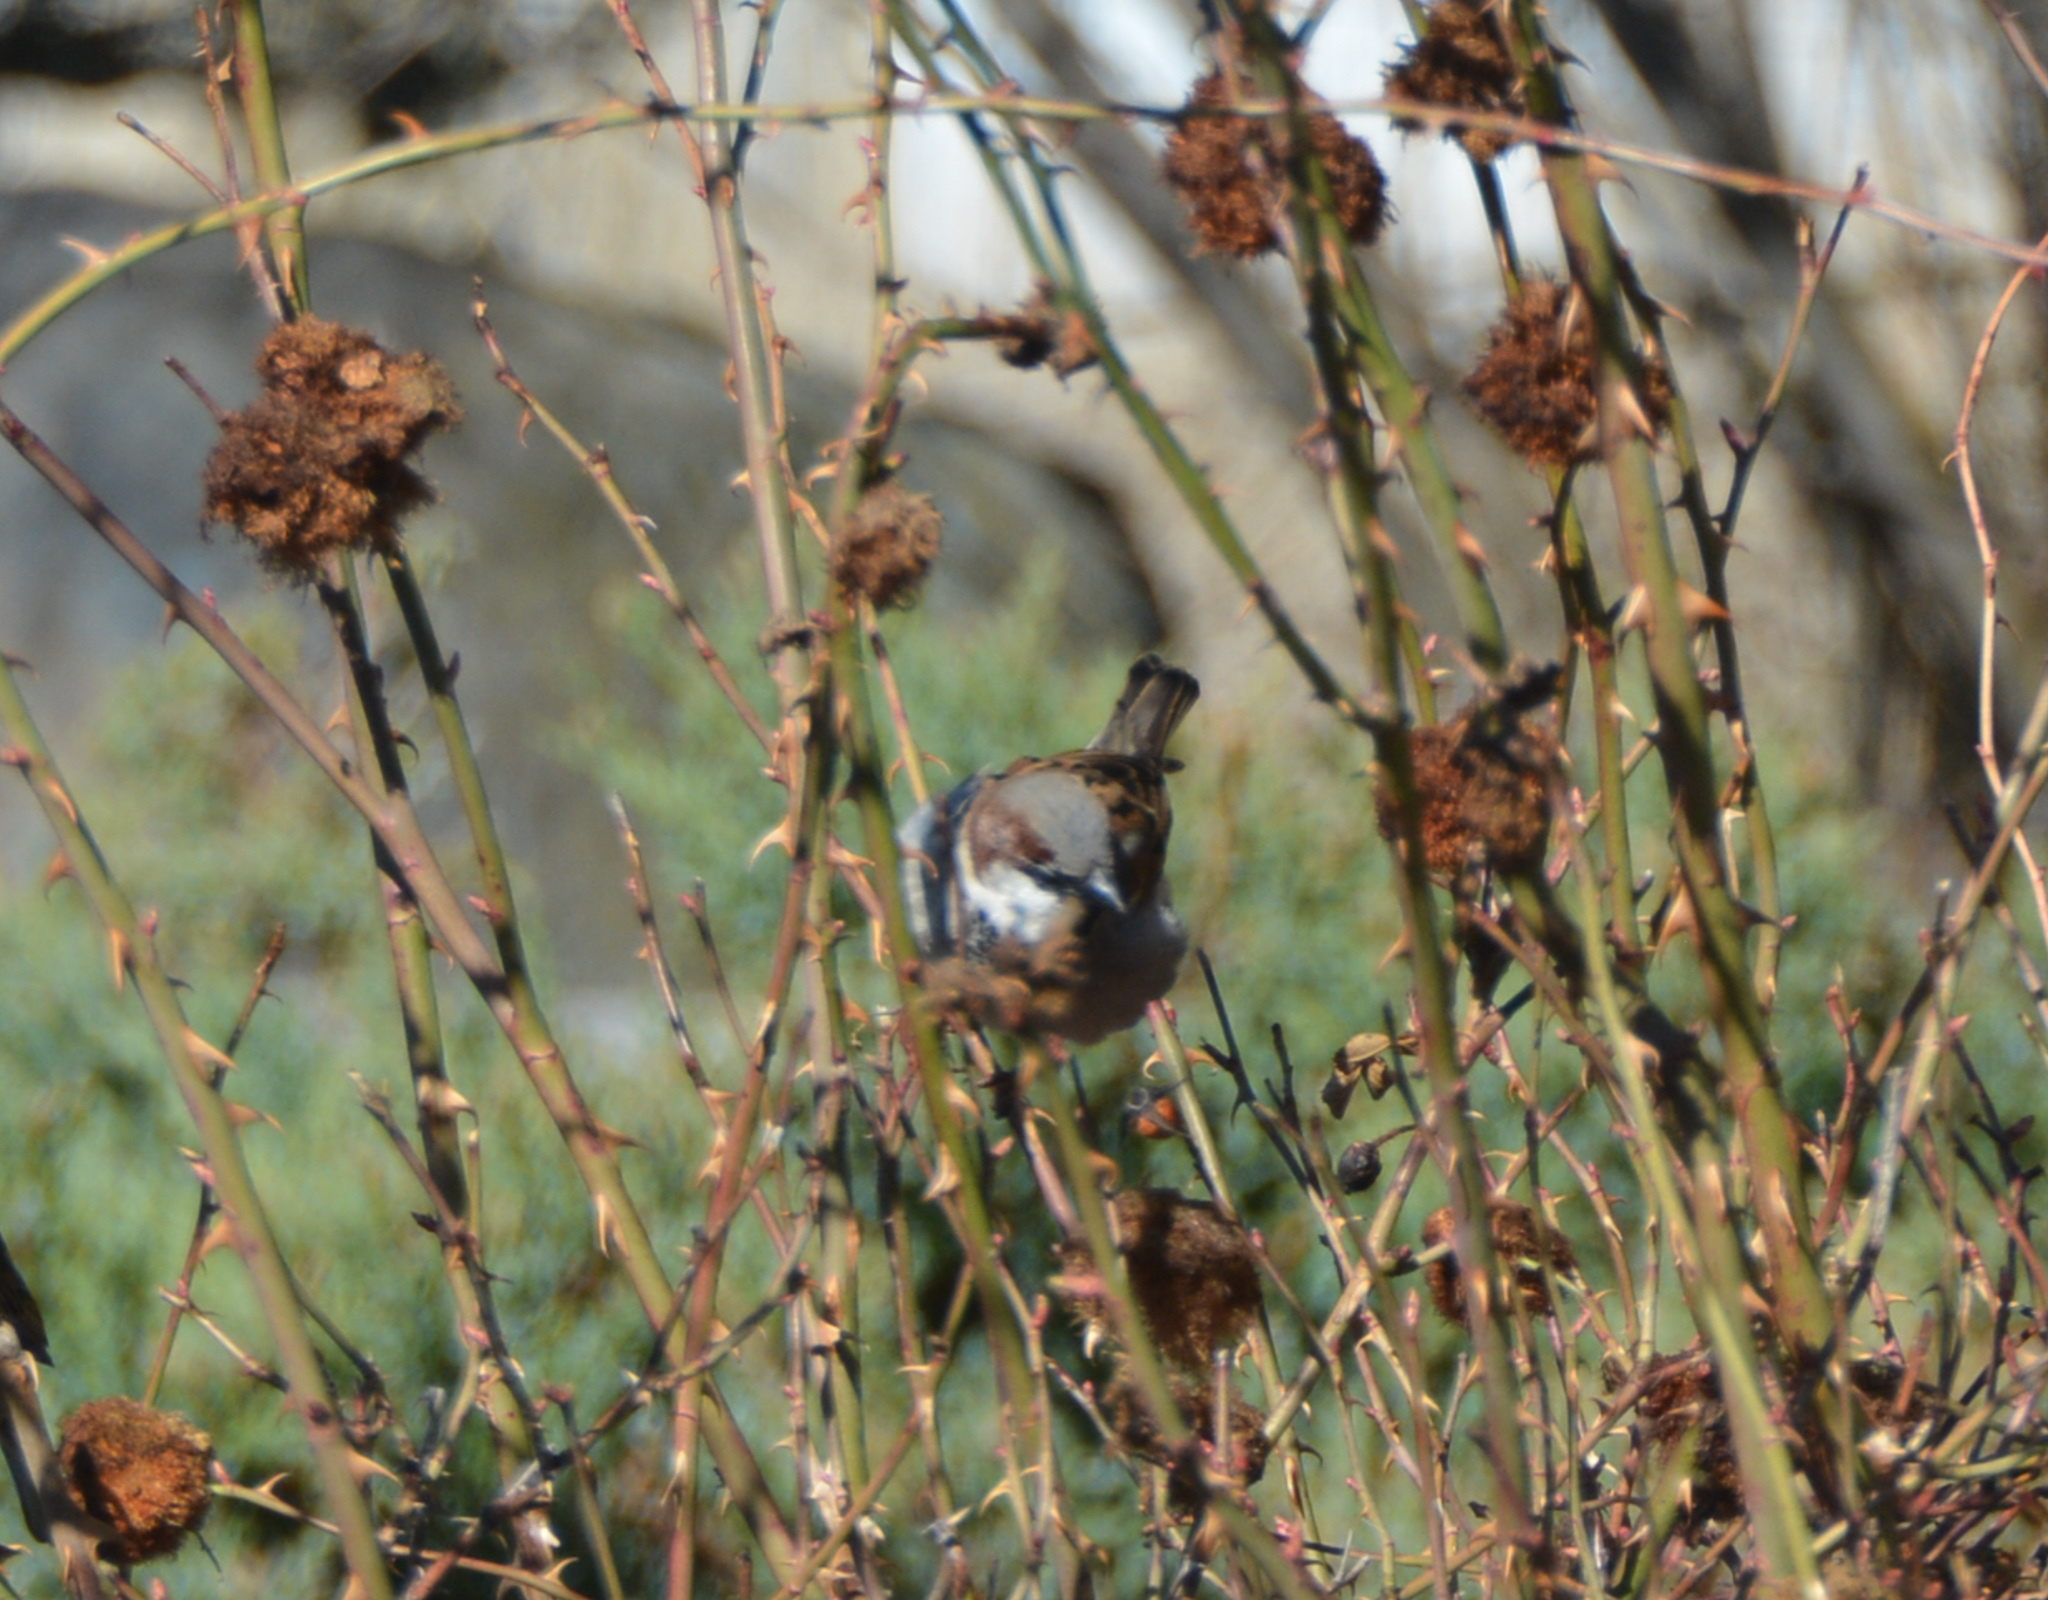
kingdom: Animalia
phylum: Chordata
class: Aves
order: Passeriformes
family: Passeridae
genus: Passer
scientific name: Passer domesticus
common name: House sparrow
